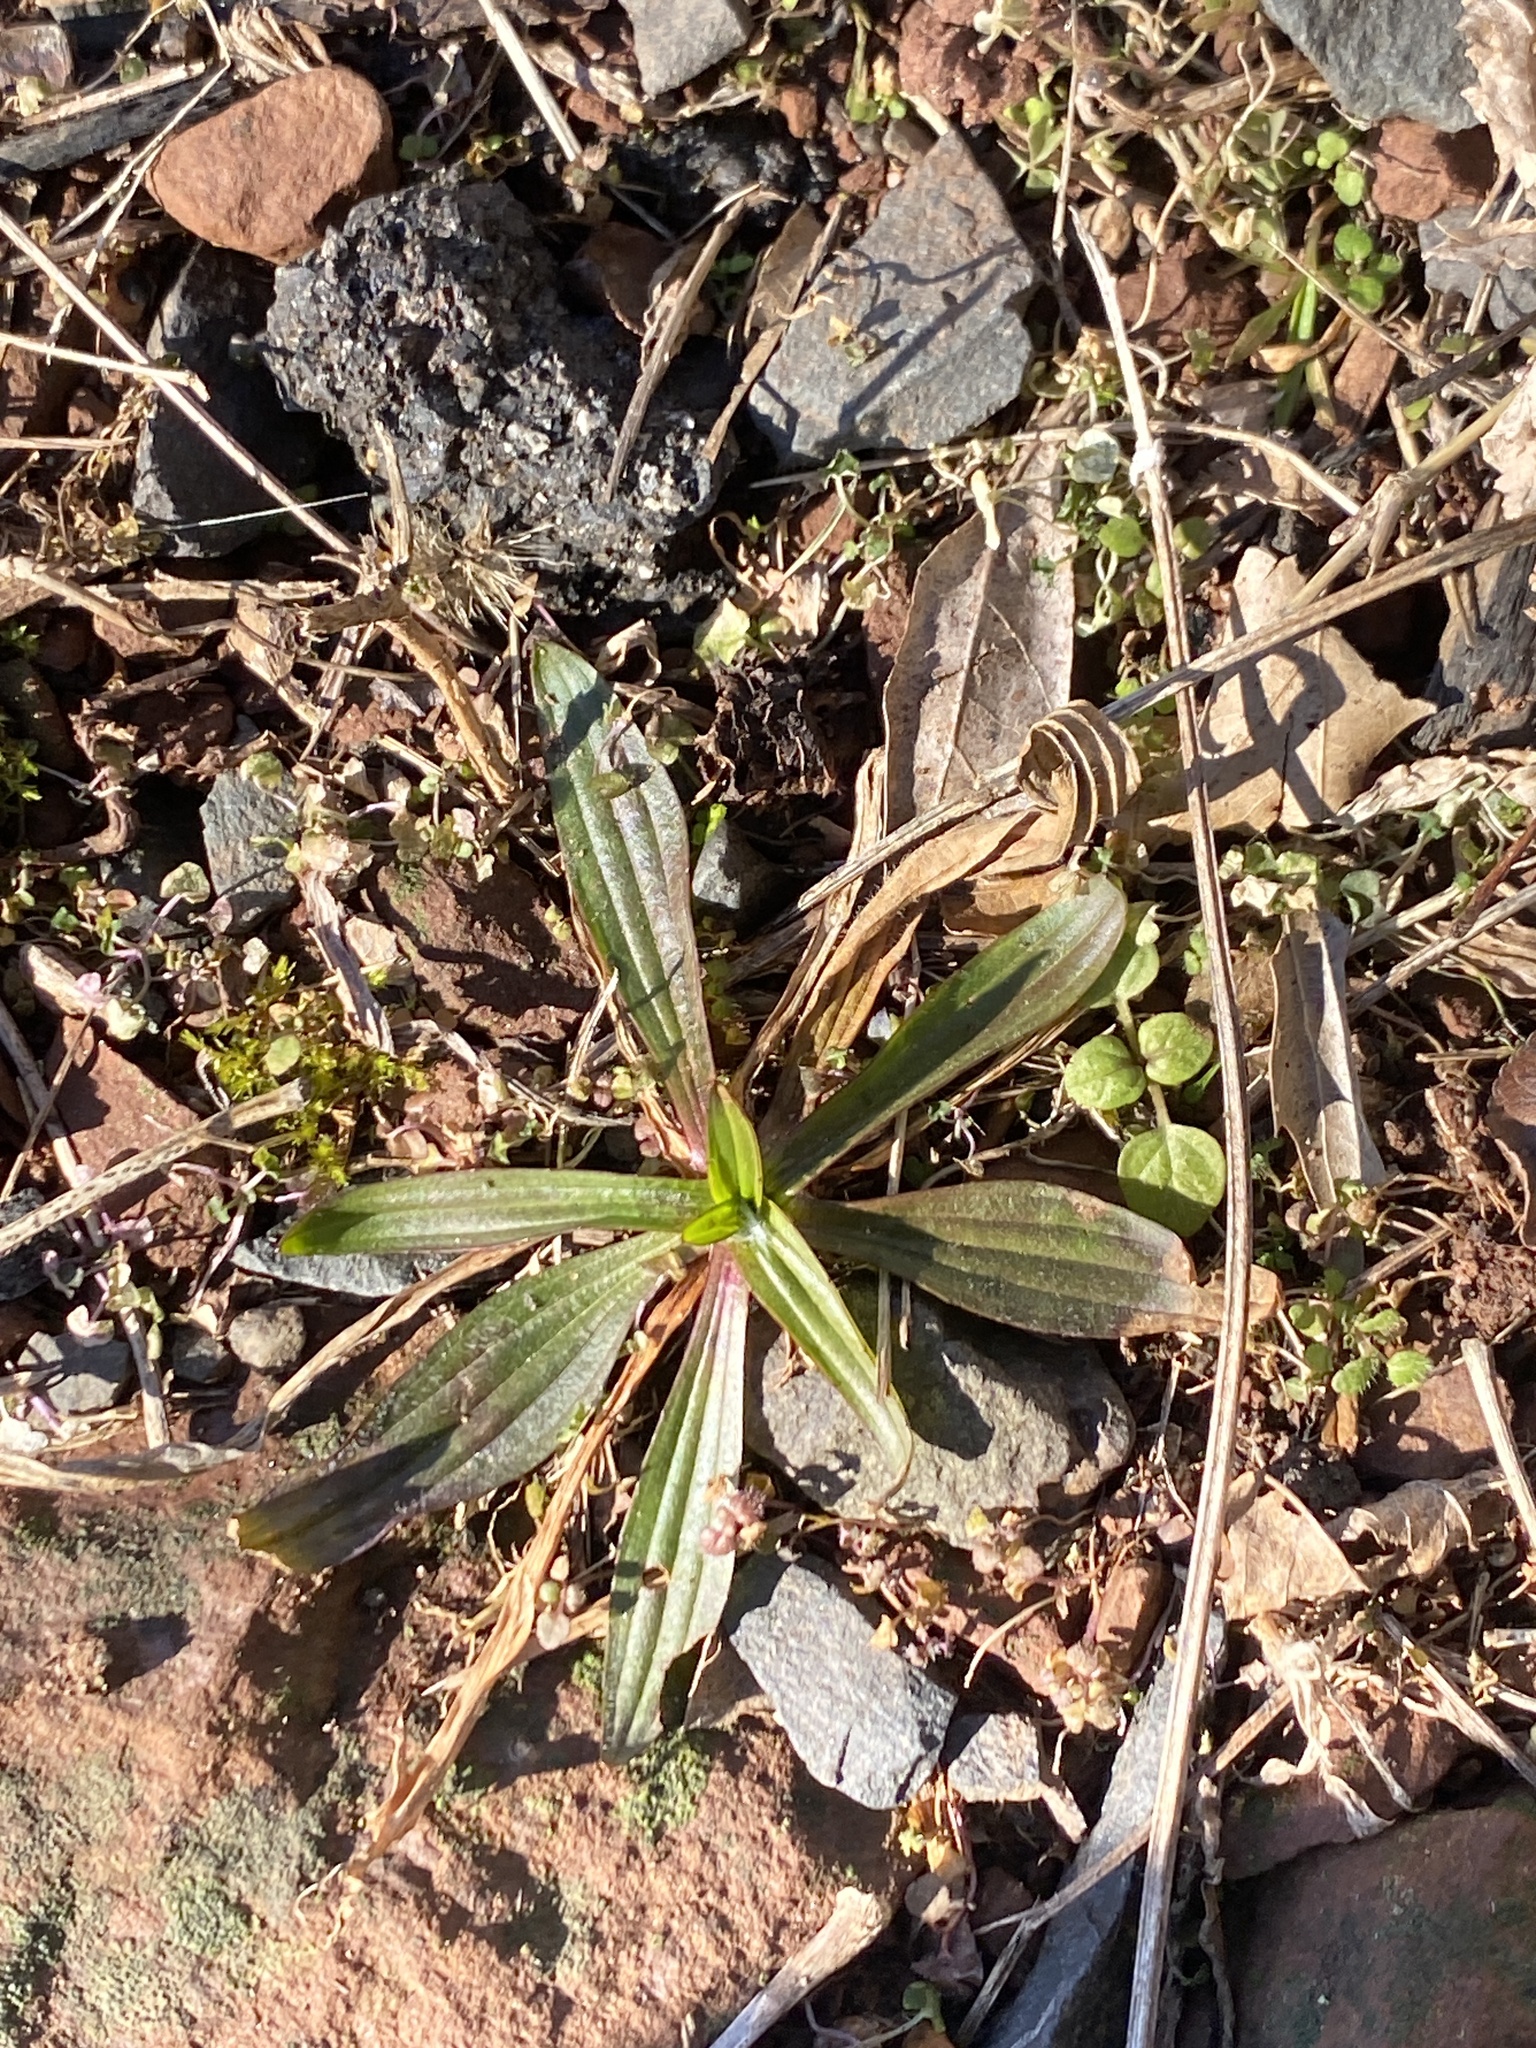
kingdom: Plantae
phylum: Tracheophyta
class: Magnoliopsida
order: Lamiales
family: Plantaginaceae
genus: Plantago
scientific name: Plantago lanceolata
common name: Ribwort plantain
